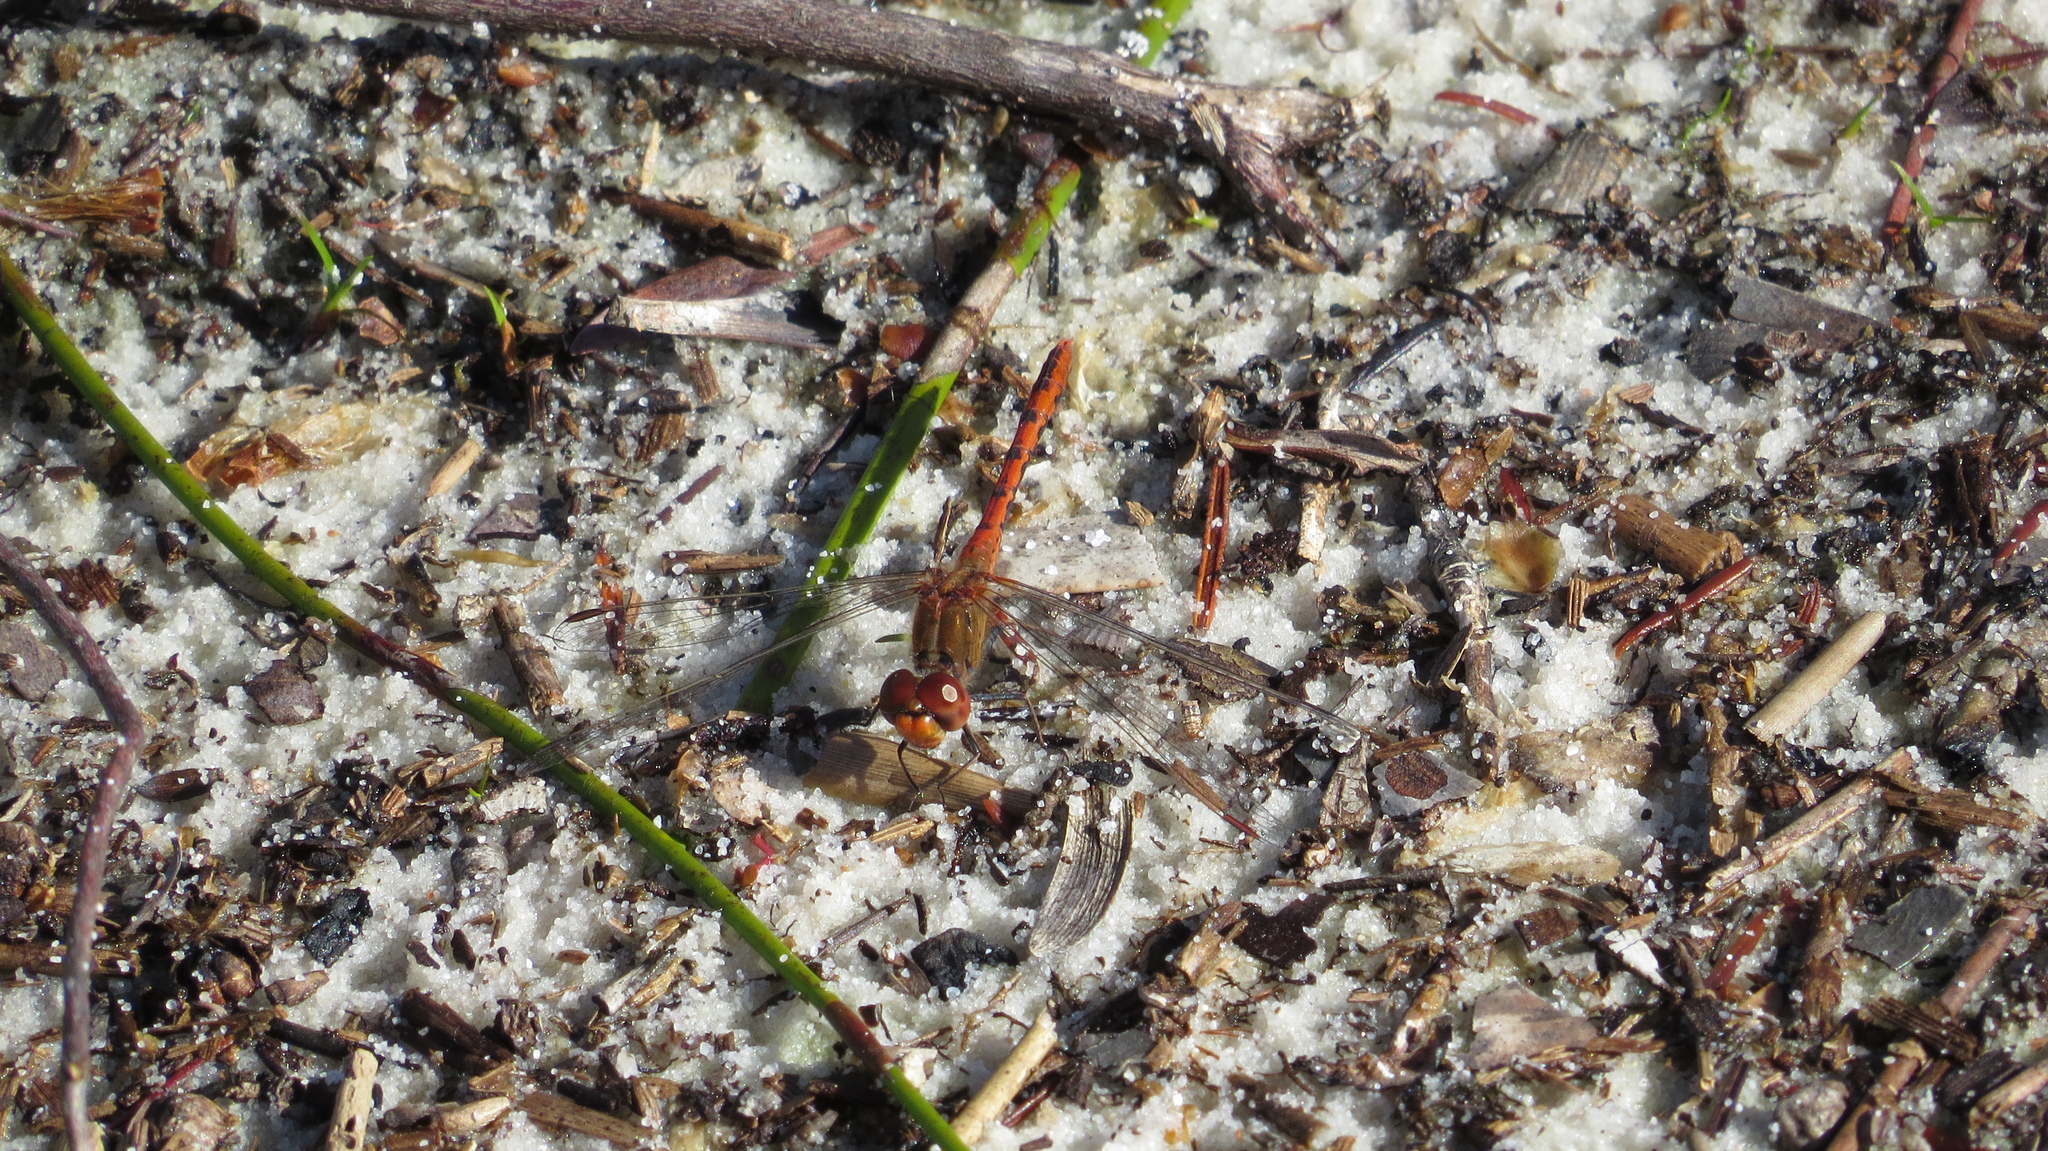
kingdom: Animalia
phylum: Arthropoda
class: Insecta
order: Odonata
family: Libellulidae
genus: Diplacodes
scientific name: Diplacodes bipunctata
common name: Red percher dragonfly
